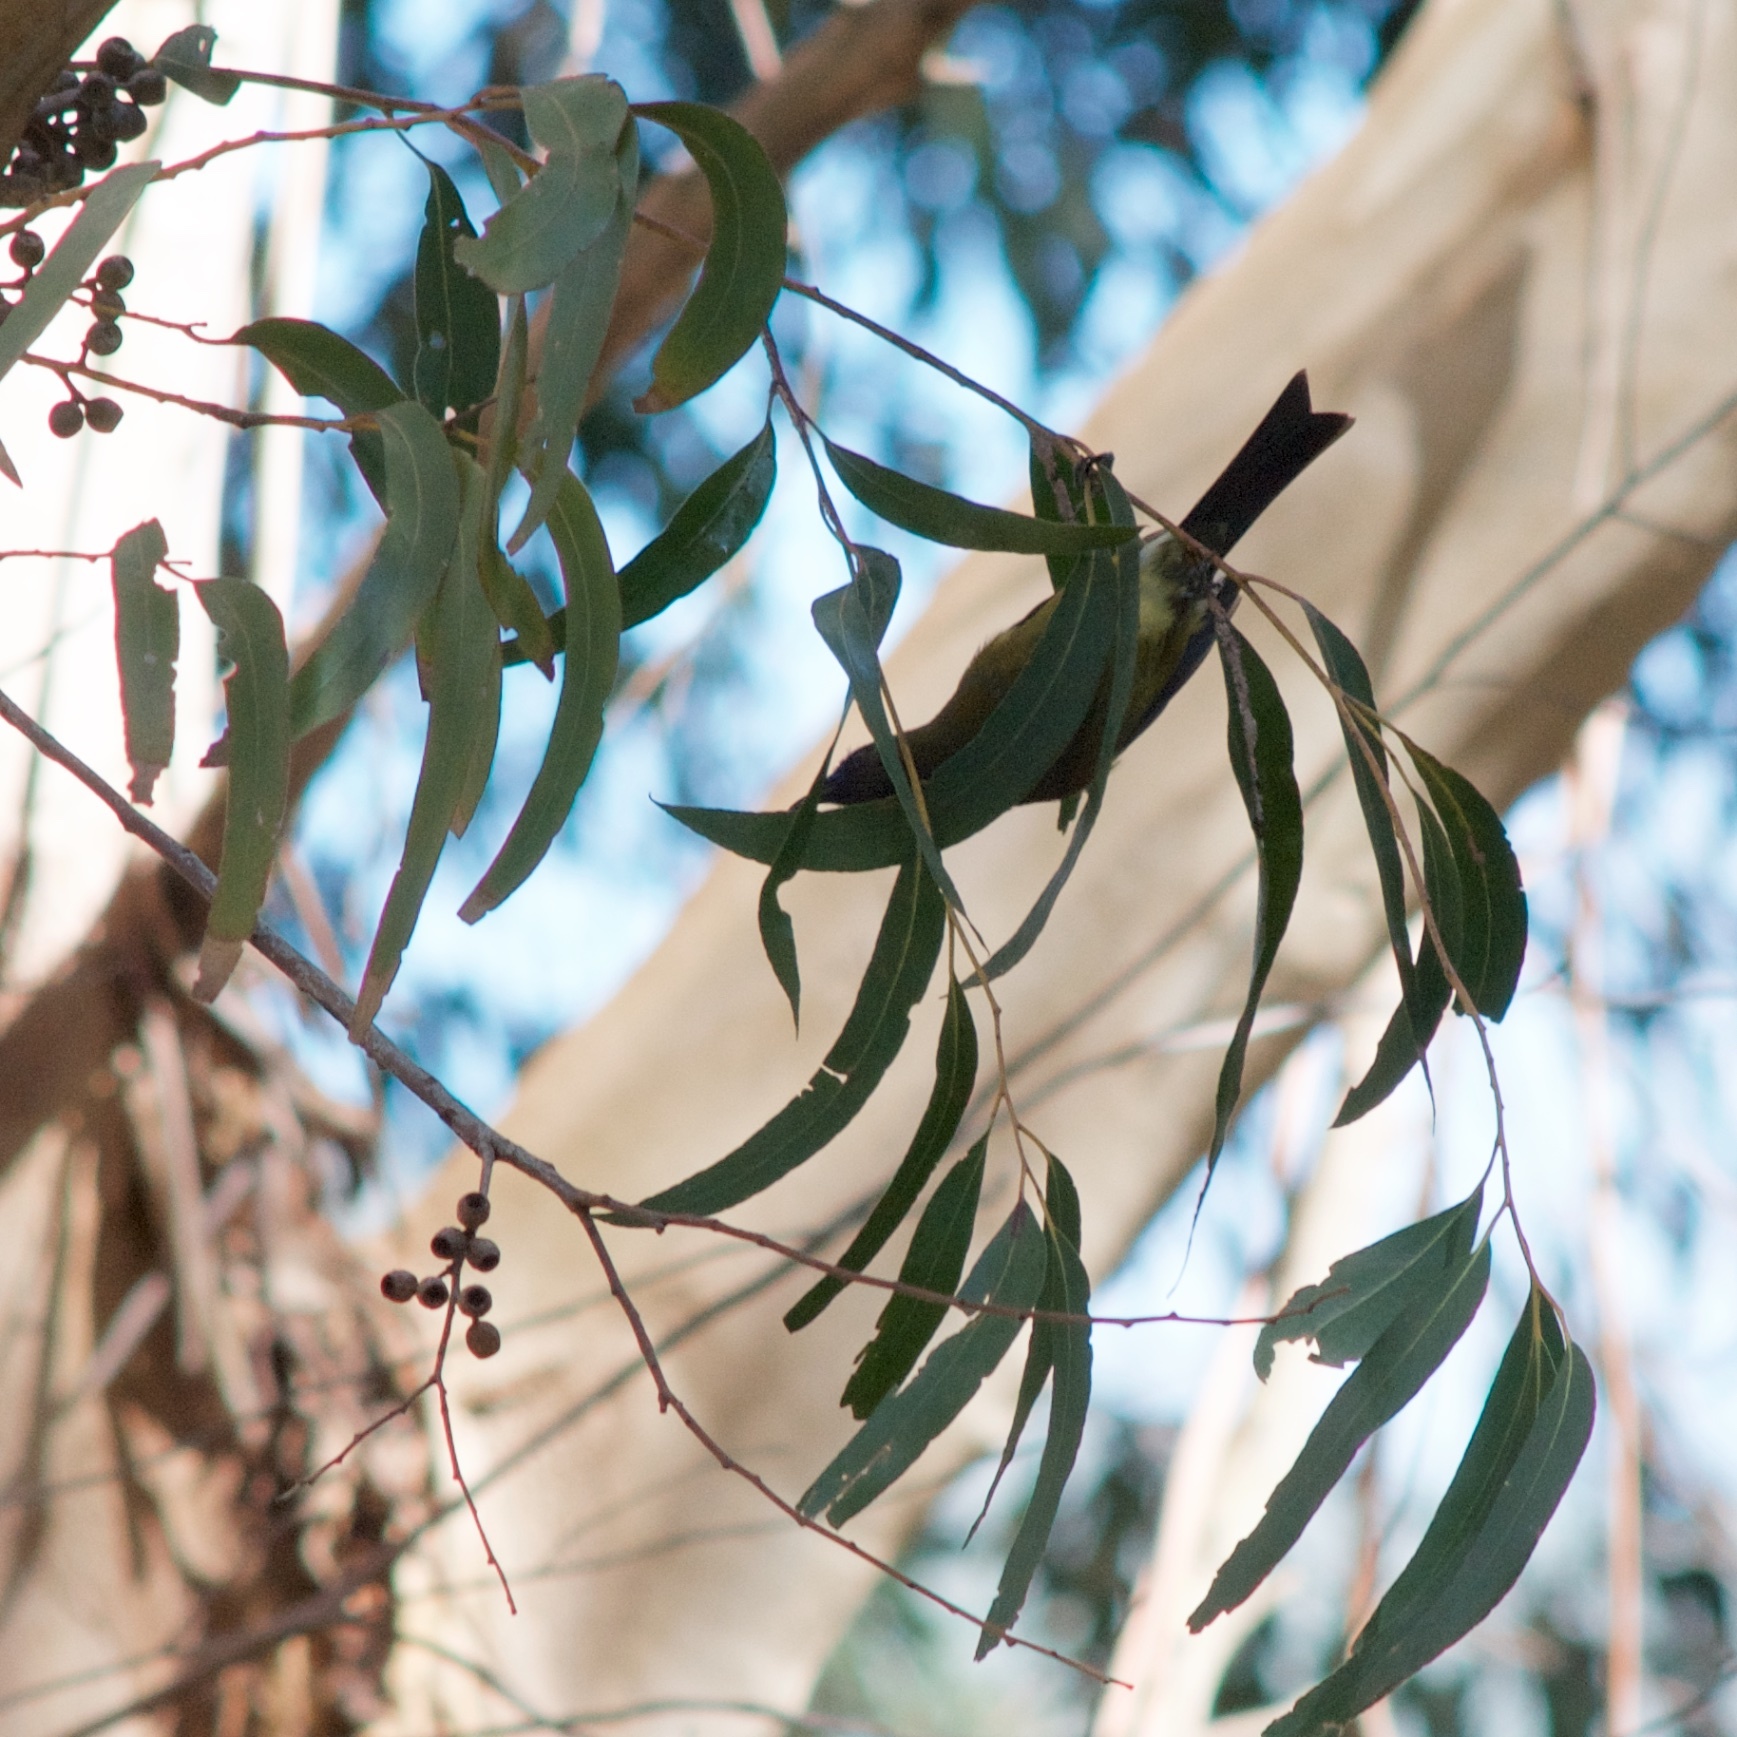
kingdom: Animalia
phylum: Chordata
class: Aves
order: Passeriformes
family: Meliphagidae
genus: Anthornis
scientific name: Anthornis melanura
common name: New zealand bellbird
